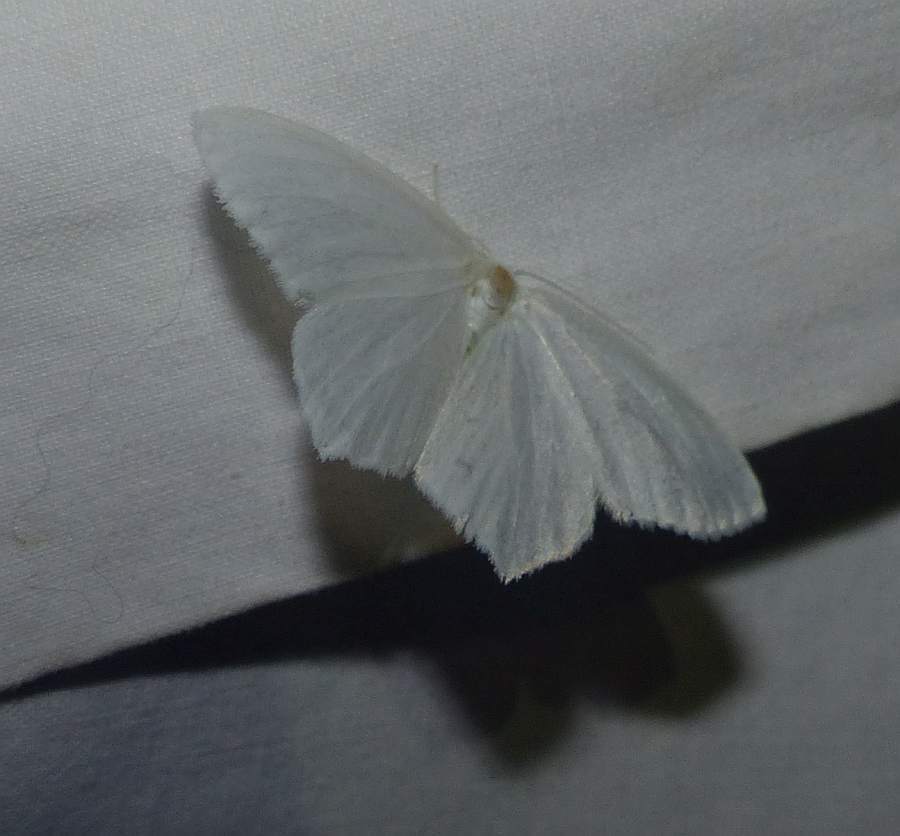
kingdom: Animalia
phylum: Arthropoda
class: Insecta
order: Lepidoptera
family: Geometridae
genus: Eugonobapta
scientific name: Eugonobapta nivosaria
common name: Snowy geometer
